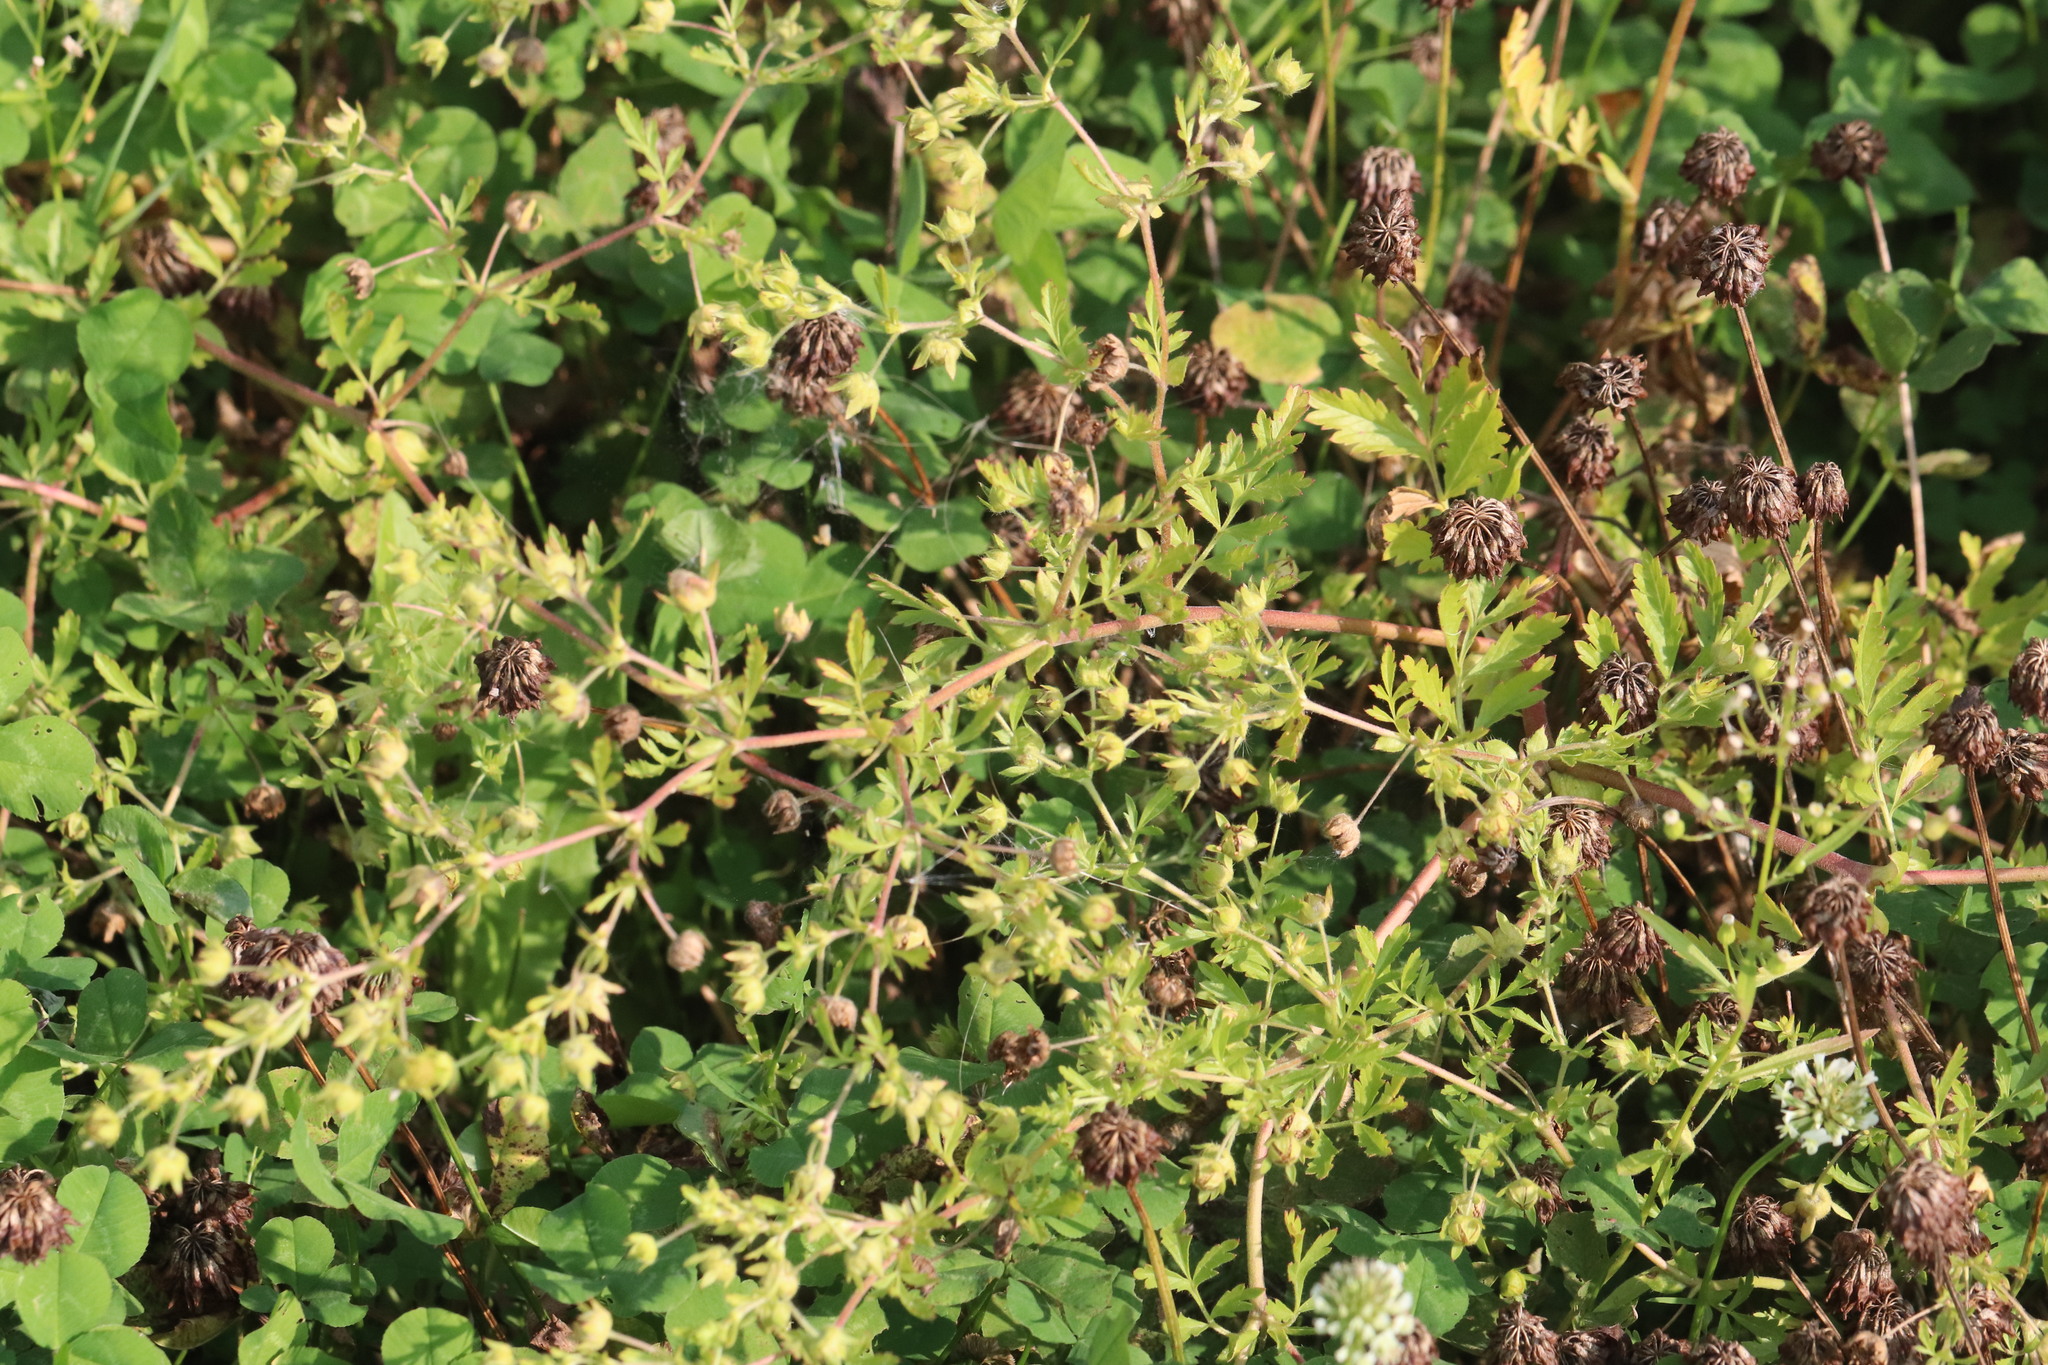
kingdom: Plantae
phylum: Tracheophyta
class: Magnoliopsida
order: Rosales
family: Rosaceae
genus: Potentilla
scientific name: Potentilla supina
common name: Prostrate cinquefoil
